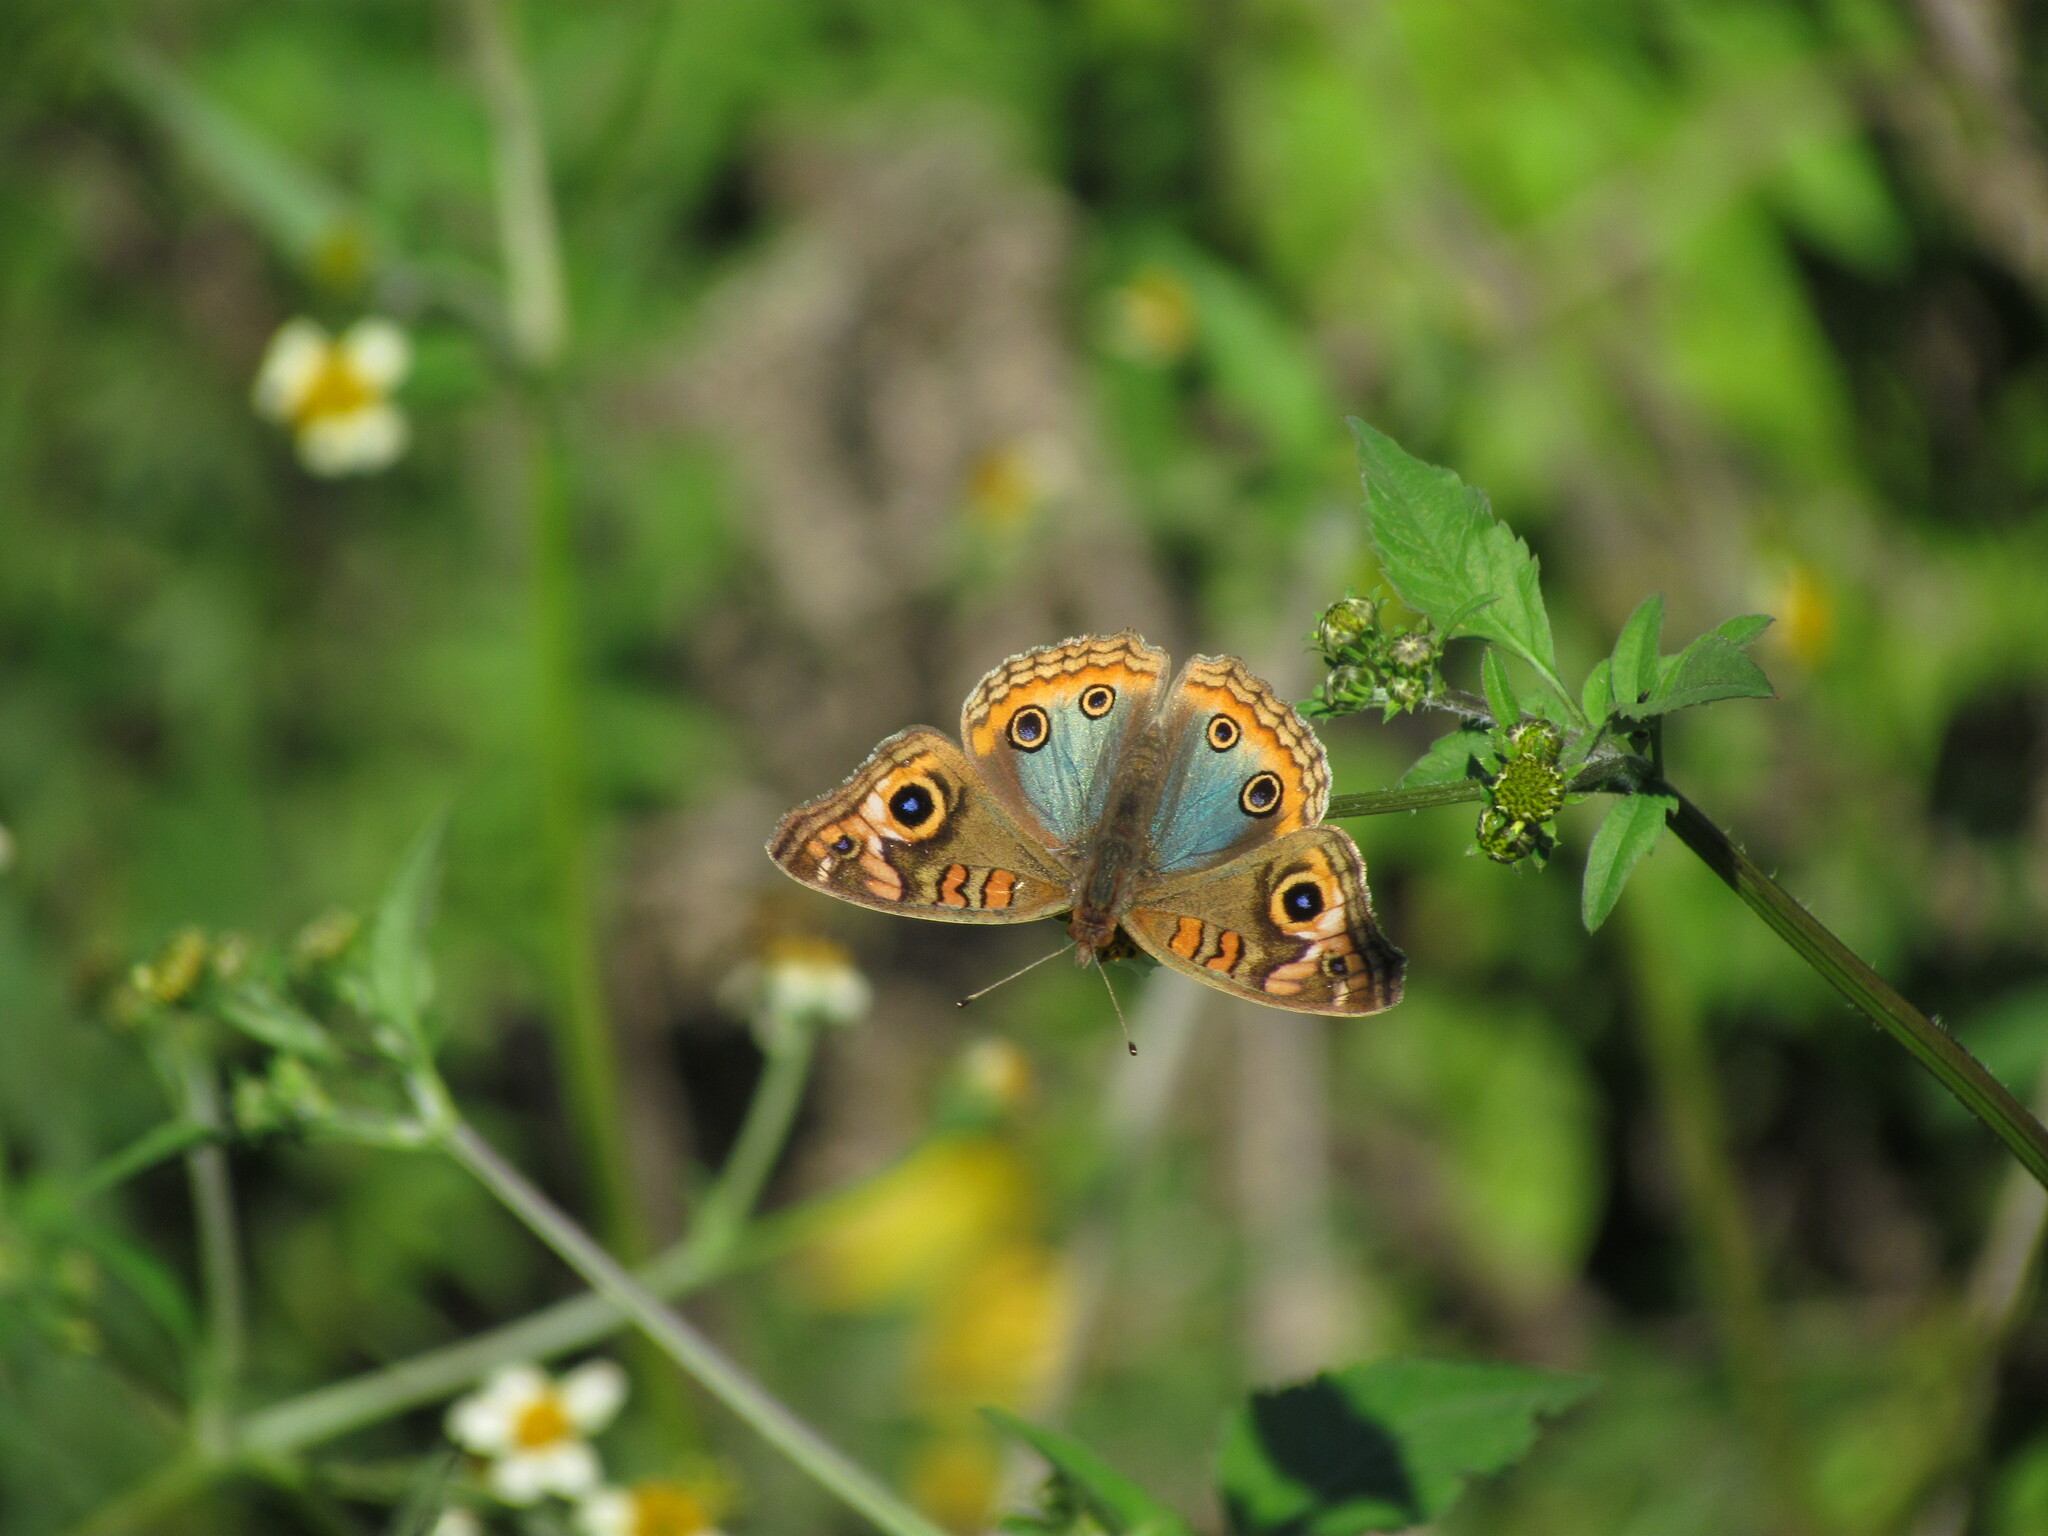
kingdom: Animalia
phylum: Arthropoda
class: Insecta
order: Lepidoptera
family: Nymphalidae
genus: Junonia
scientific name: Junonia lavinia
